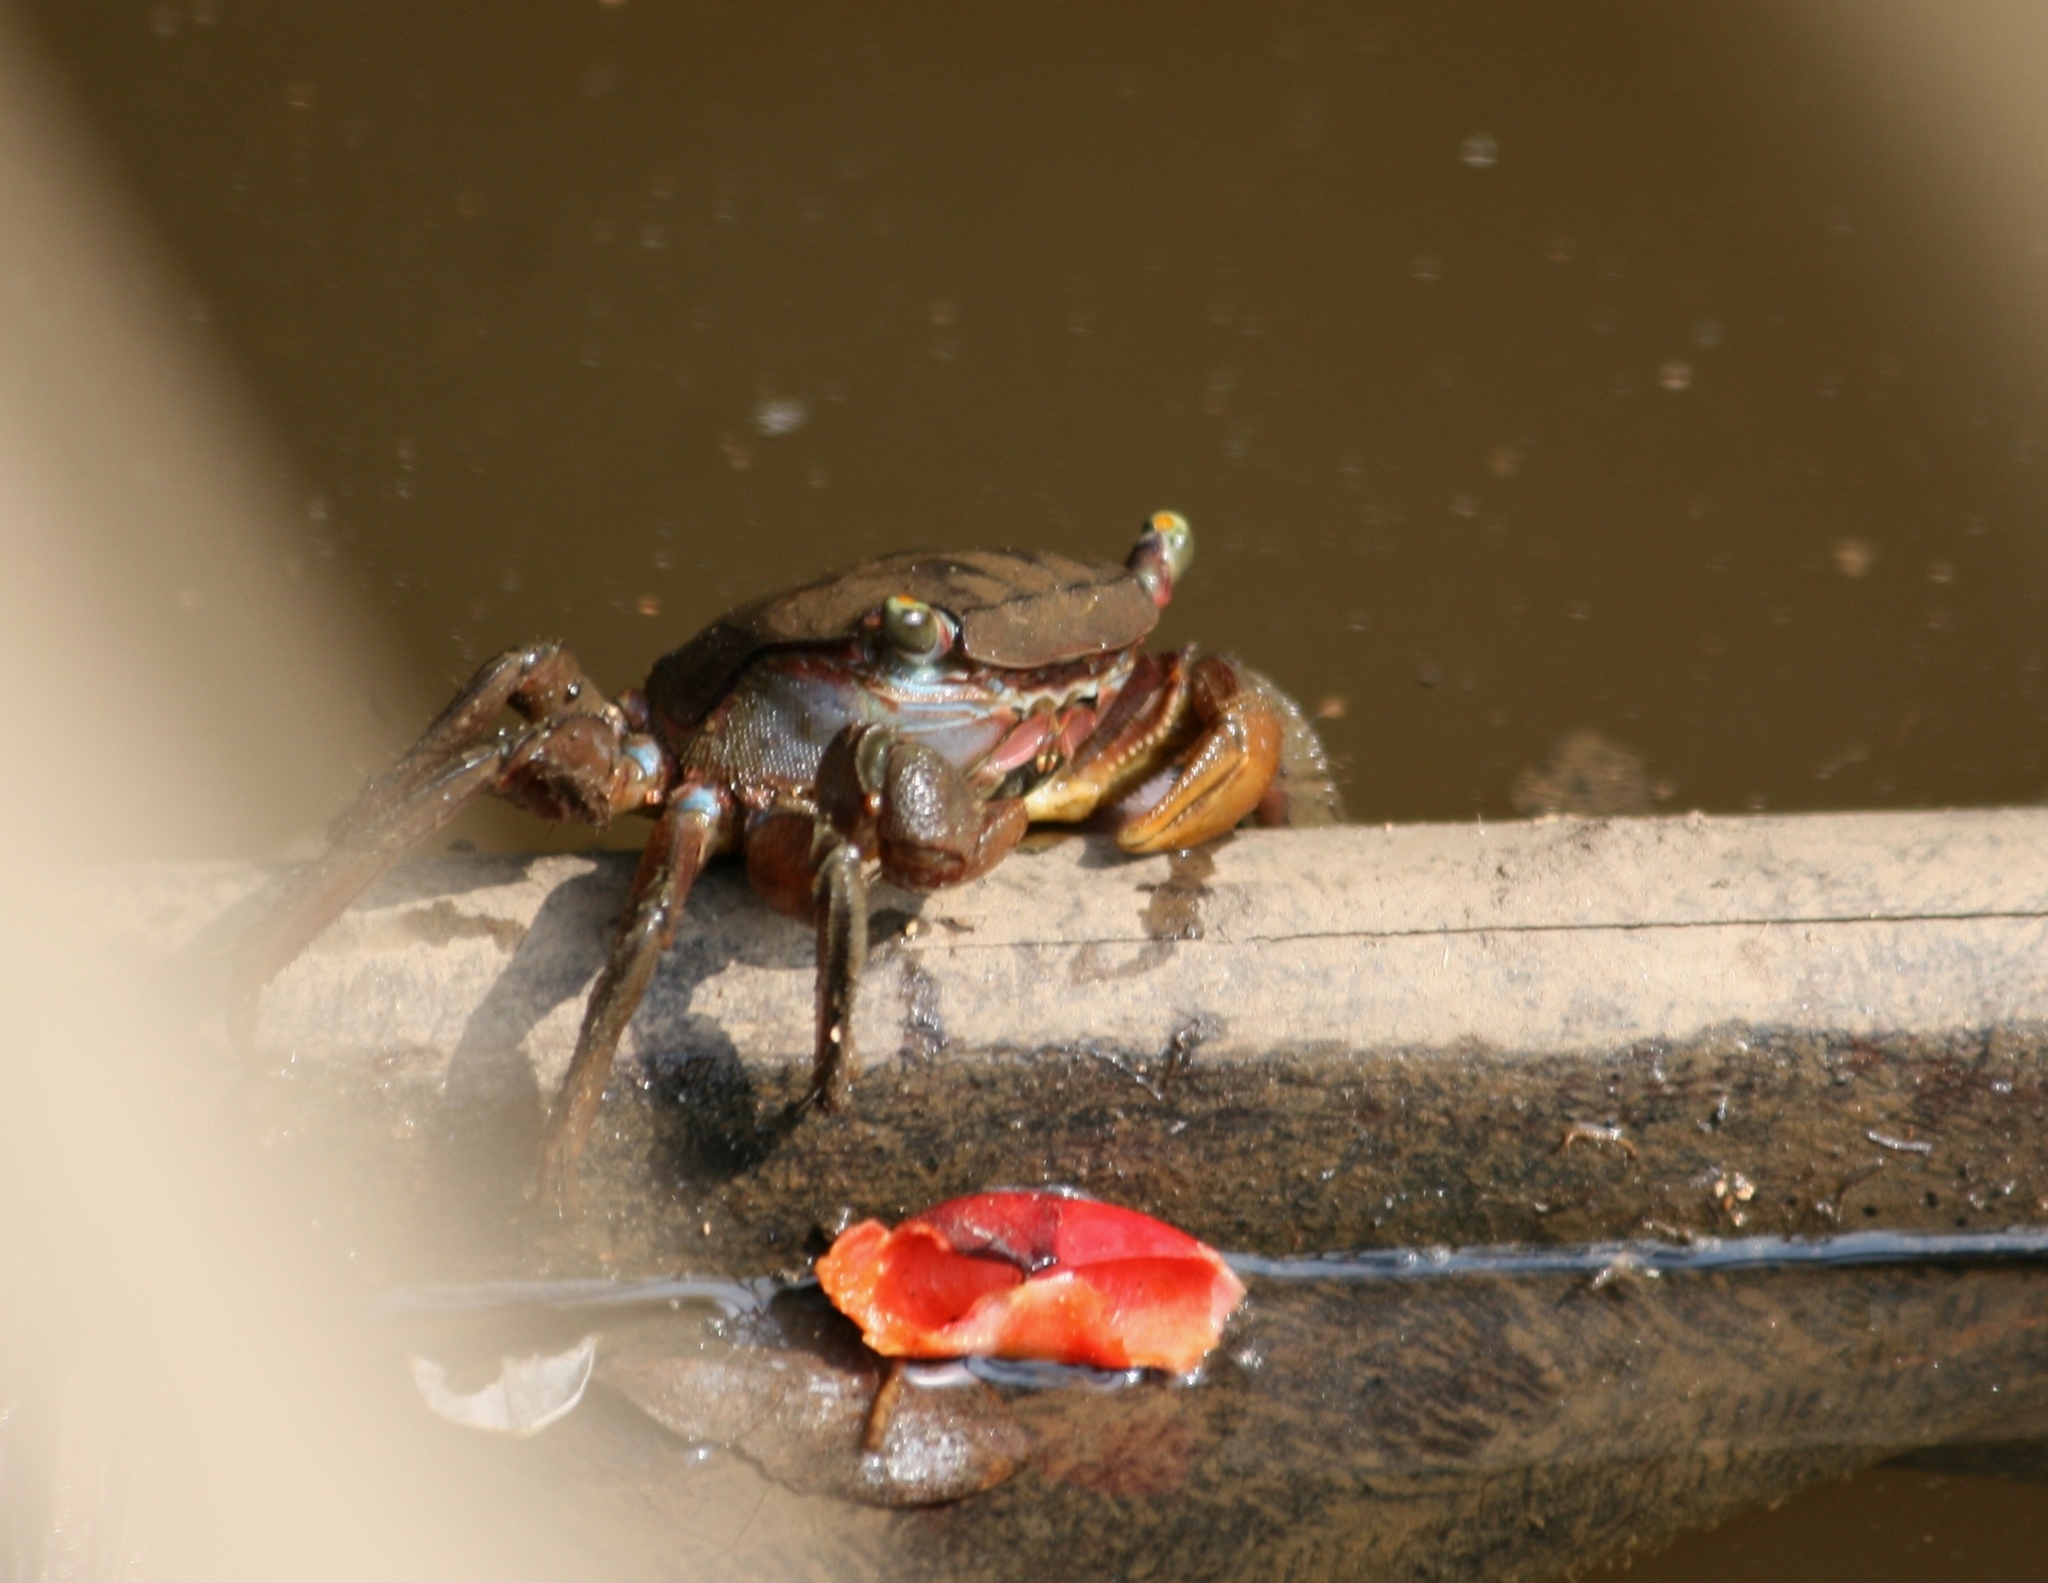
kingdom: Animalia
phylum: Arthropoda
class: Malacostraca
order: Decapoda
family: Sesarmidae
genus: Trapezarma
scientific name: Trapezarma angolensis
